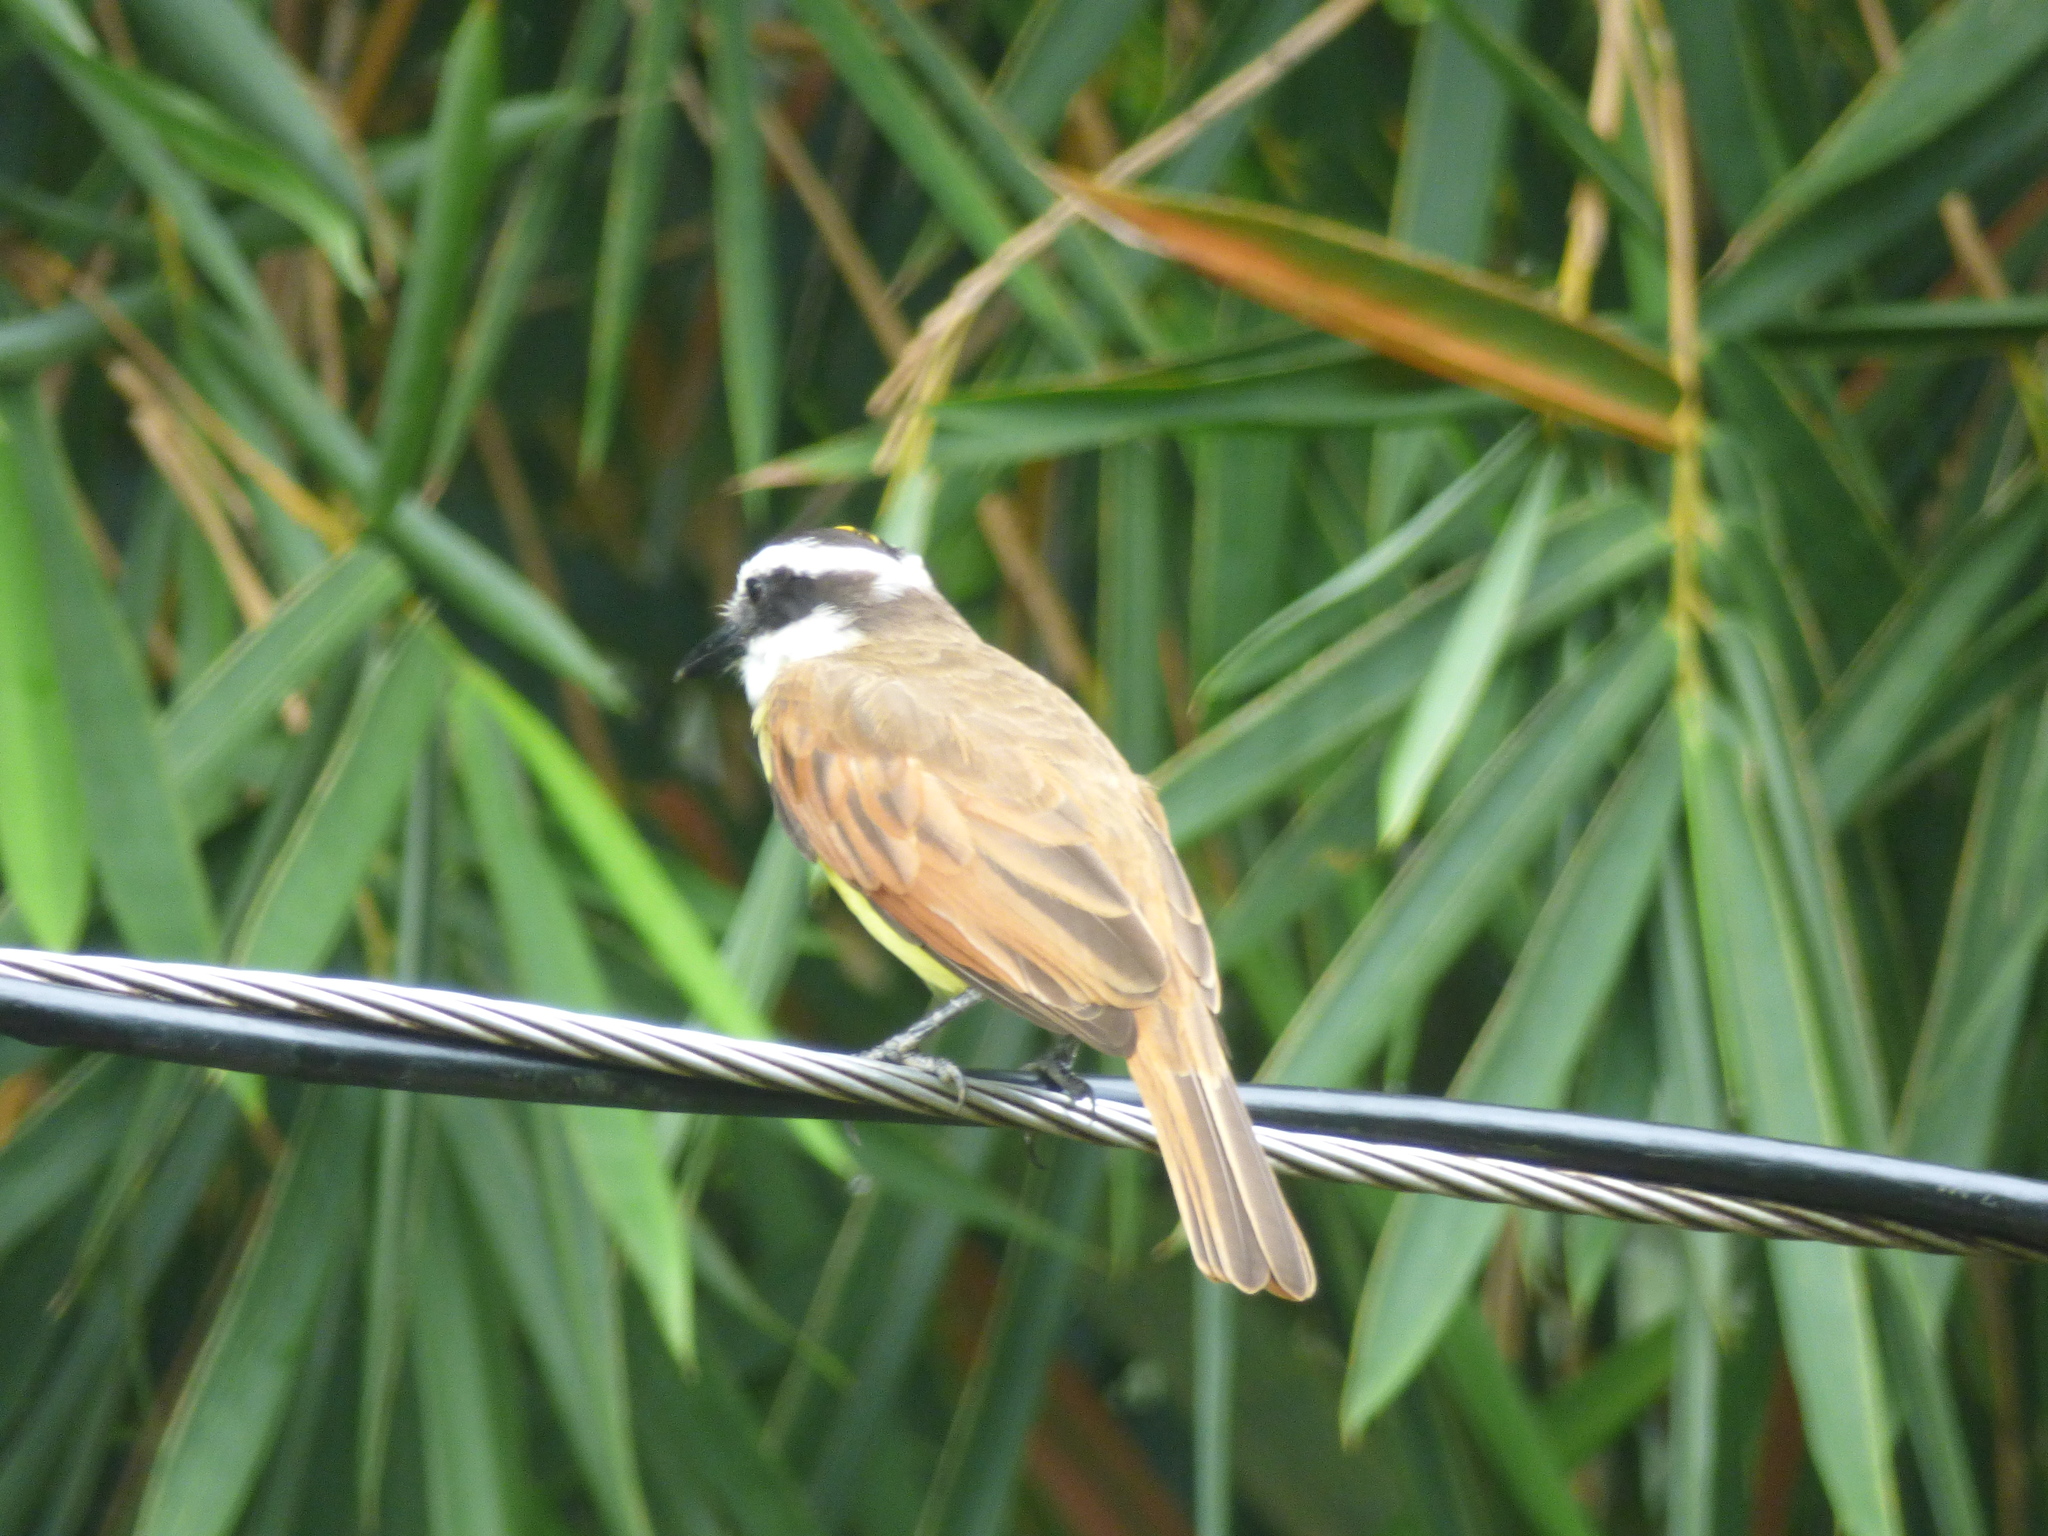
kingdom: Animalia
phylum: Chordata
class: Aves
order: Passeriformes
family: Tyrannidae
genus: Pitangus
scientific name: Pitangus lictor
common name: Lesser kiskadee
